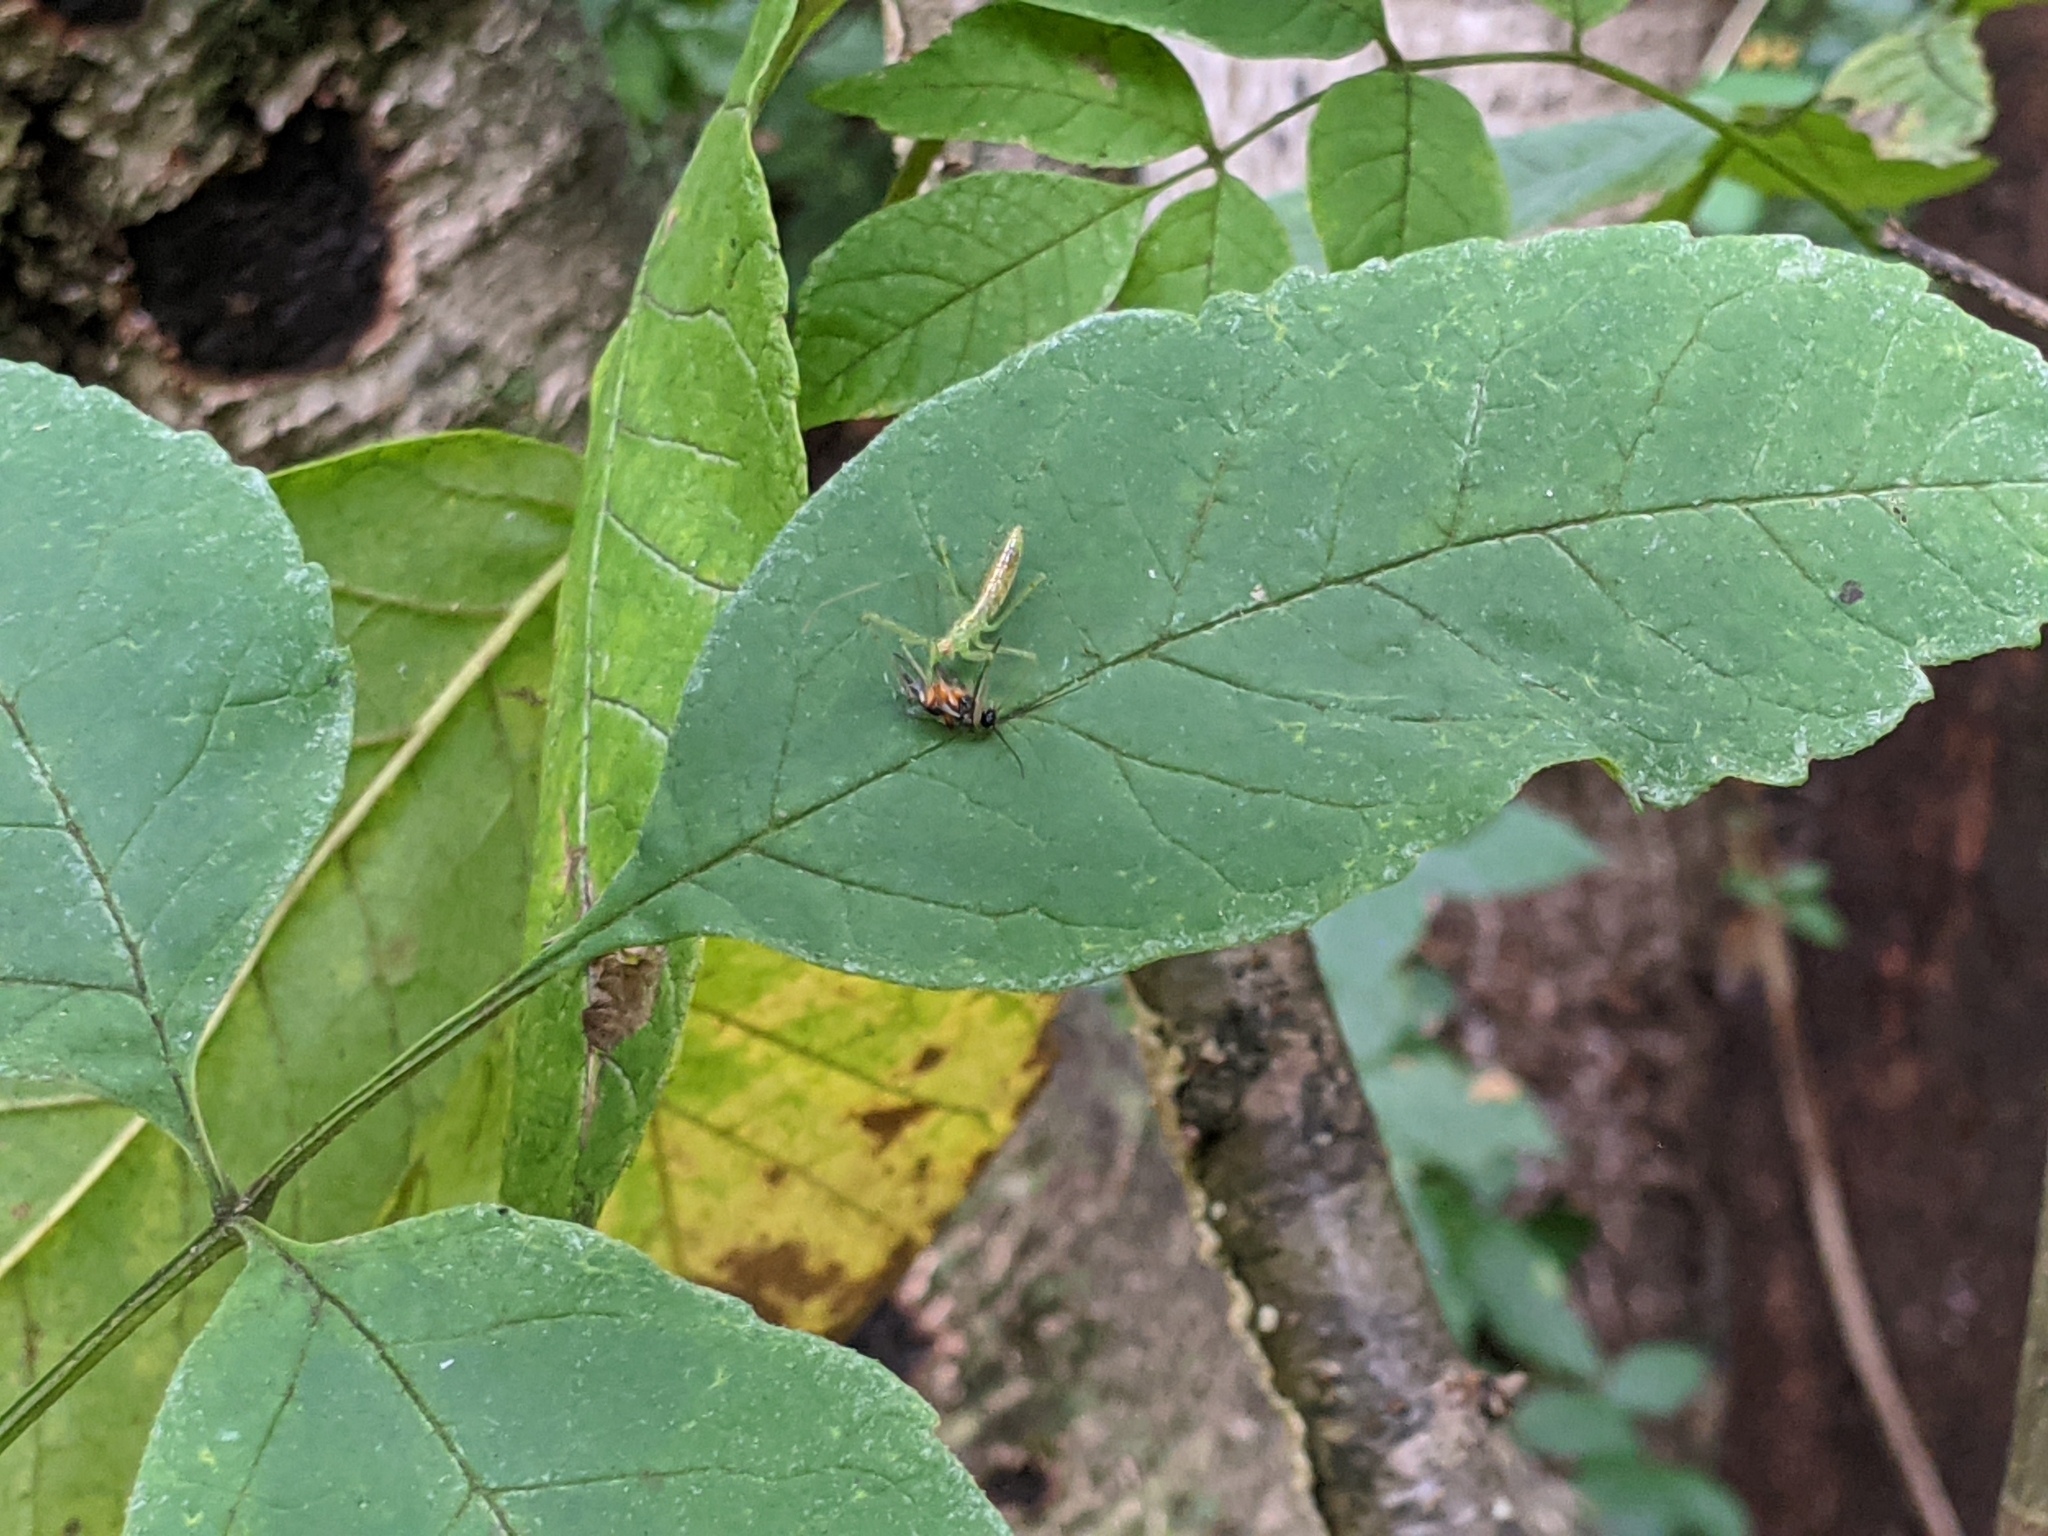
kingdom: Animalia
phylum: Arthropoda
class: Insecta
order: Hemiptera
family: Reduviidae
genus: Zelus
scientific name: Zelus luridus
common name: Pale green assassin bug
